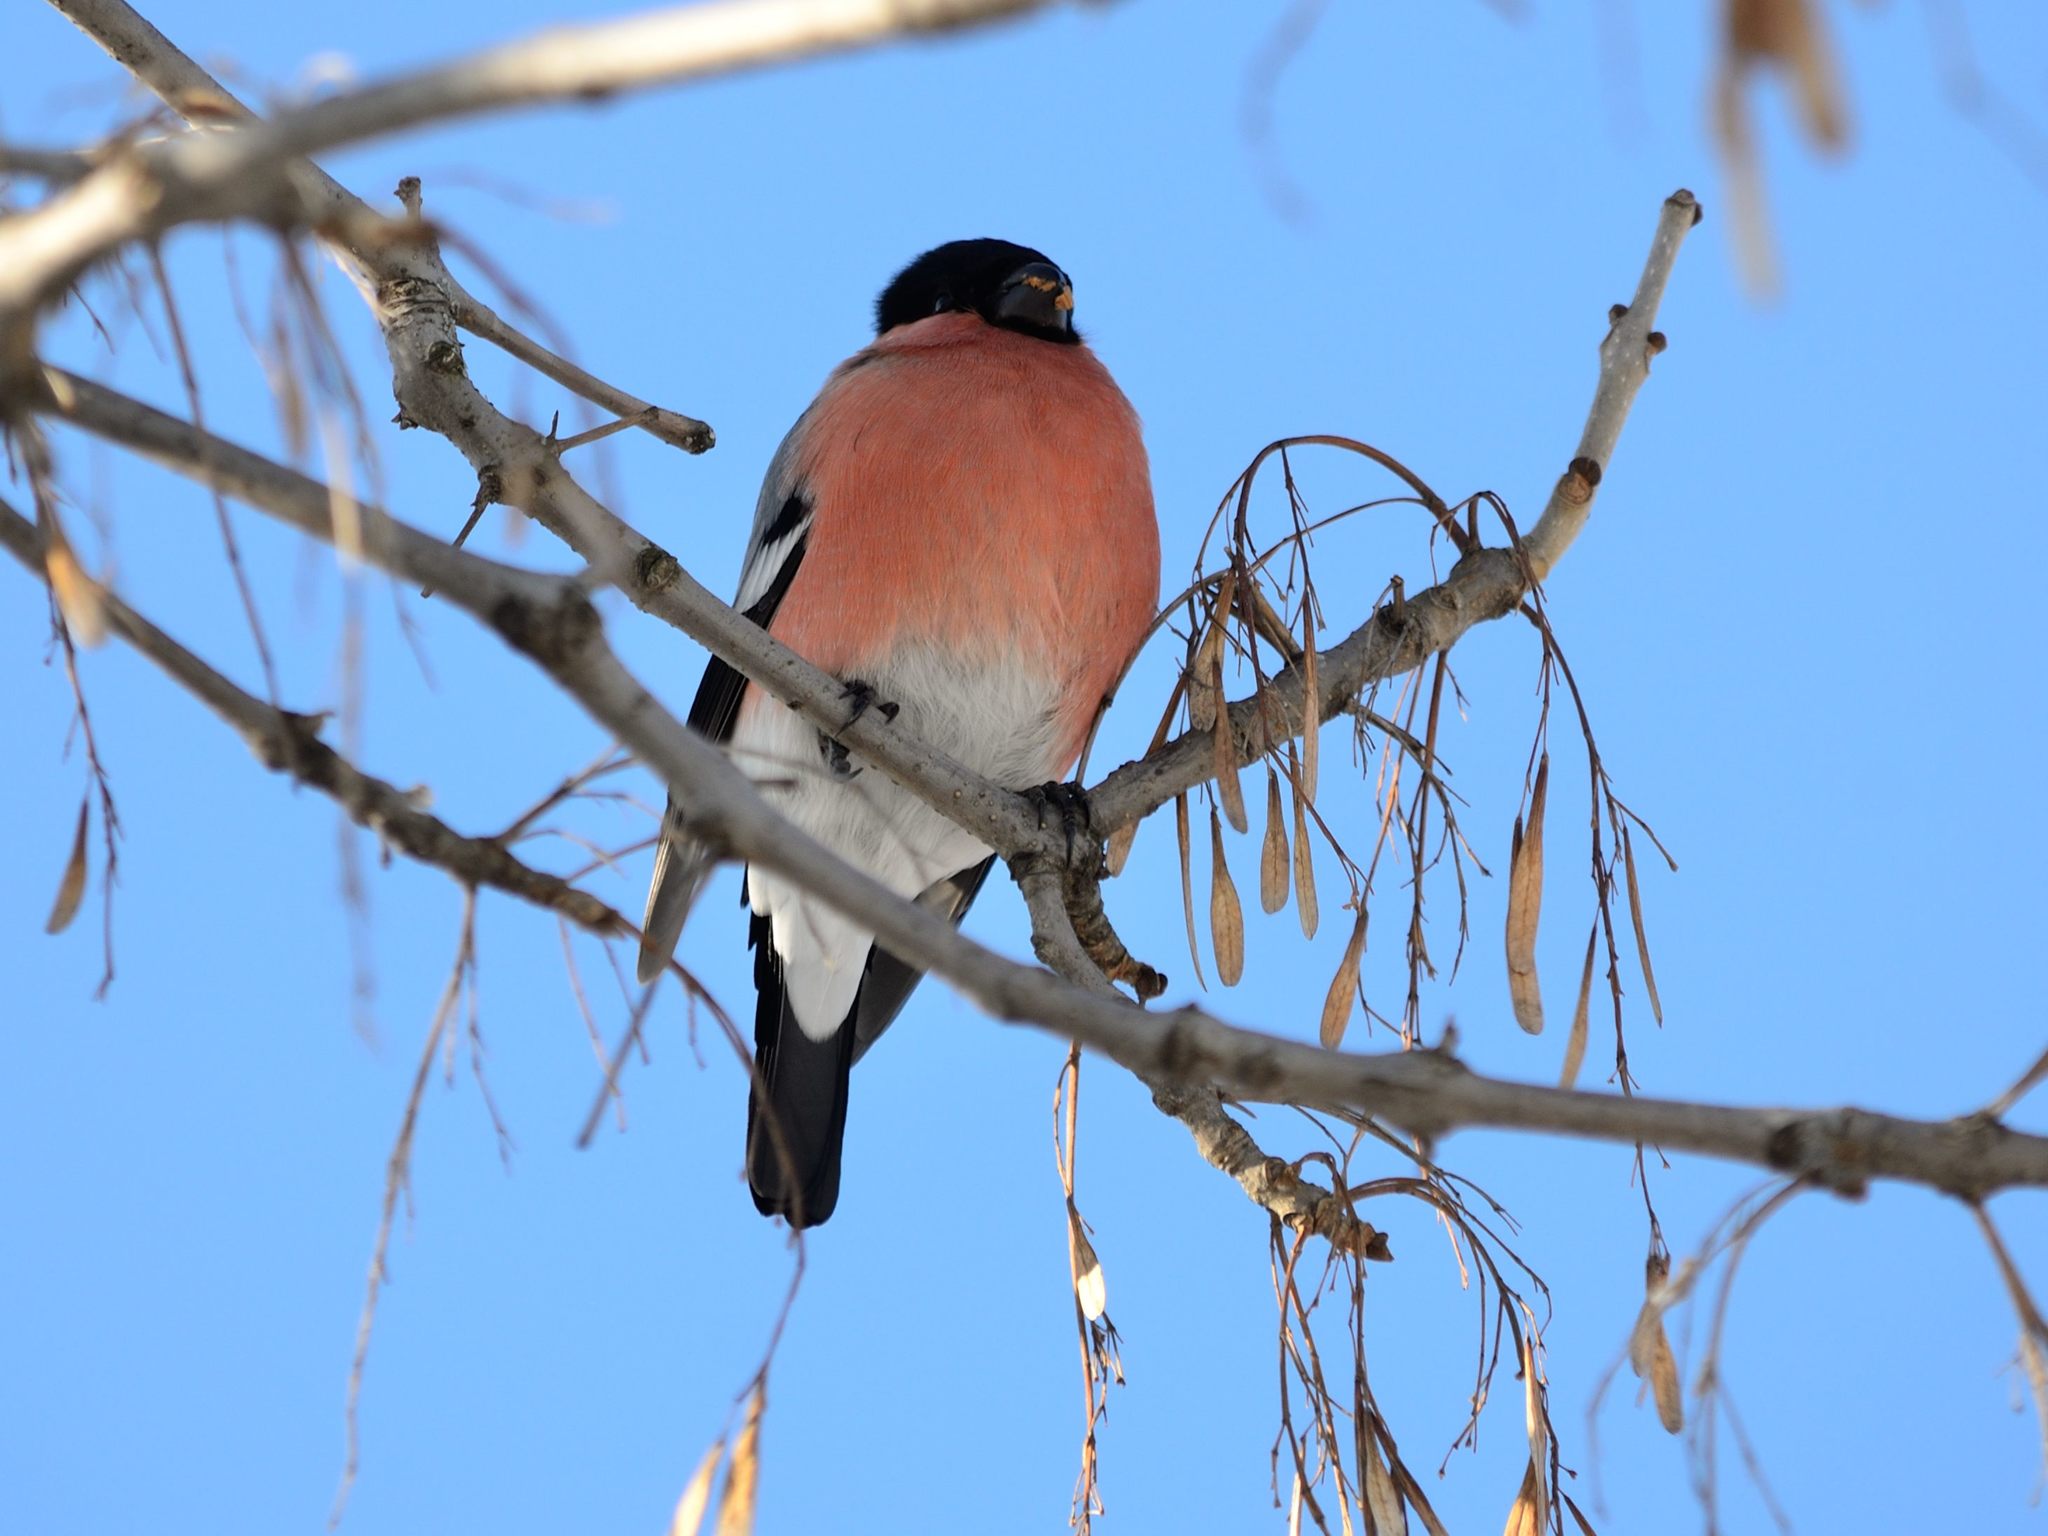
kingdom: Animalia
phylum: Chordata
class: Aves
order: Passeriformes
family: Fringillidae
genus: Pyrrhula
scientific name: Pyrrhula pyrrhula
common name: Eurasian bullfinch
